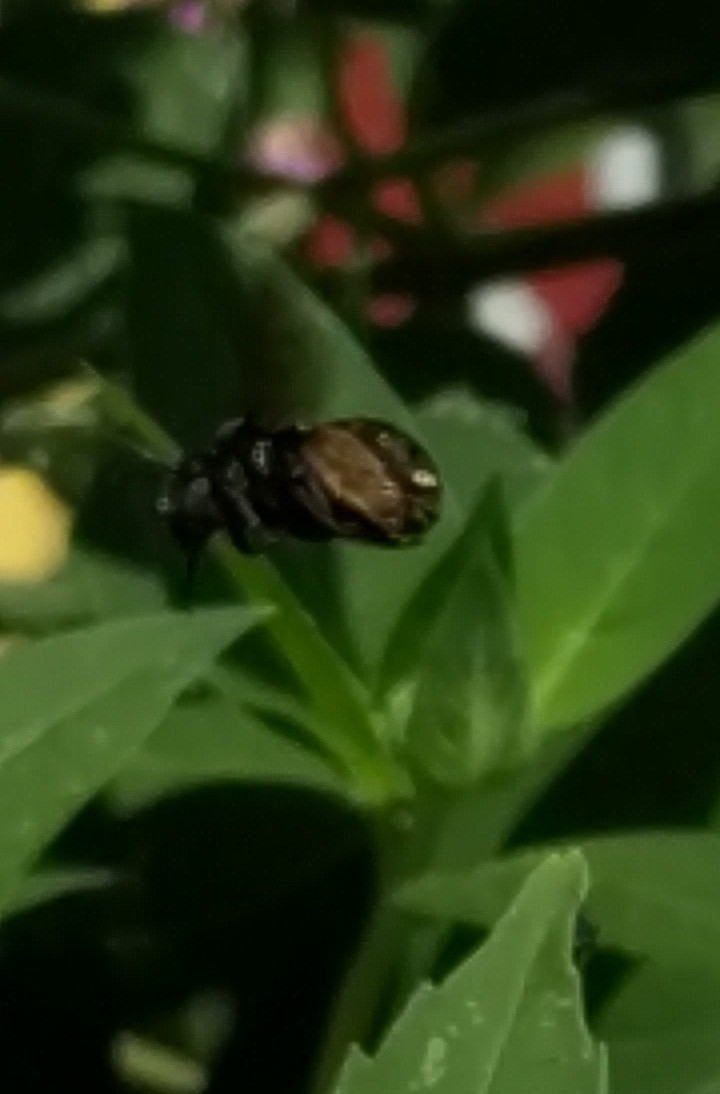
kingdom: Animalia
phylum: Arthropoda
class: Insecta
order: Hymenoptera
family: Apidae
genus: Melissodes
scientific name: Melissodes bimaculatus
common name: Two-spotted long-horned bee
